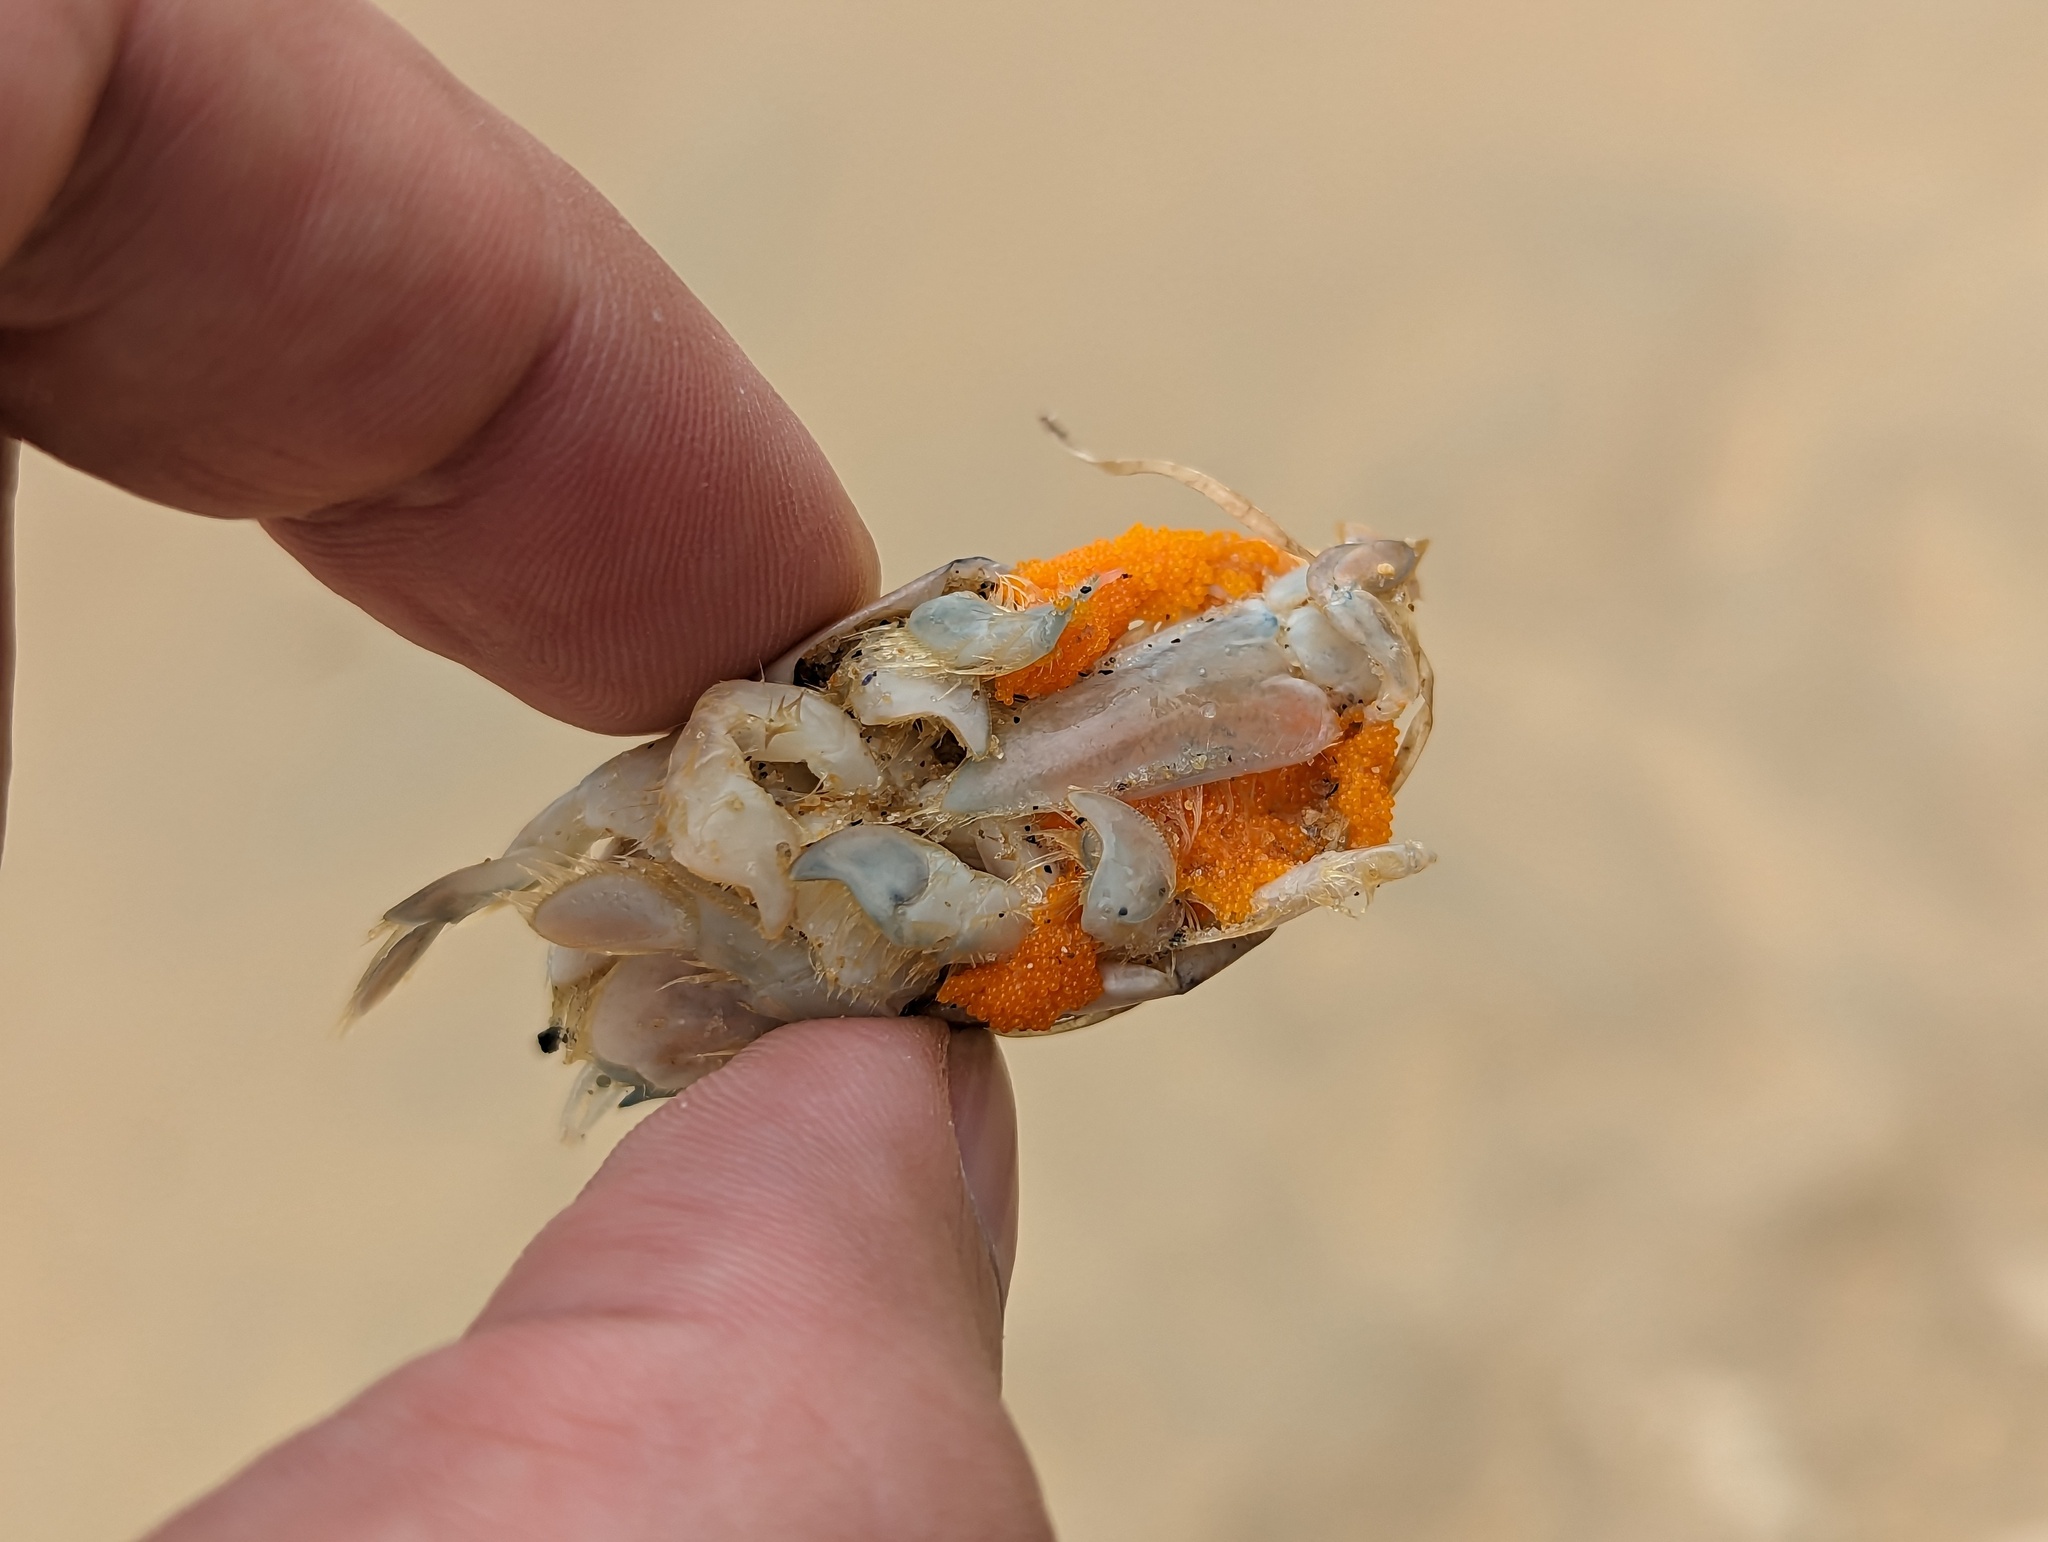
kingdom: Animalia
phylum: Arthropoda
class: Malacostraca
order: Decapoda
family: Hippidae
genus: Emerita
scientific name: Emerita analoga
